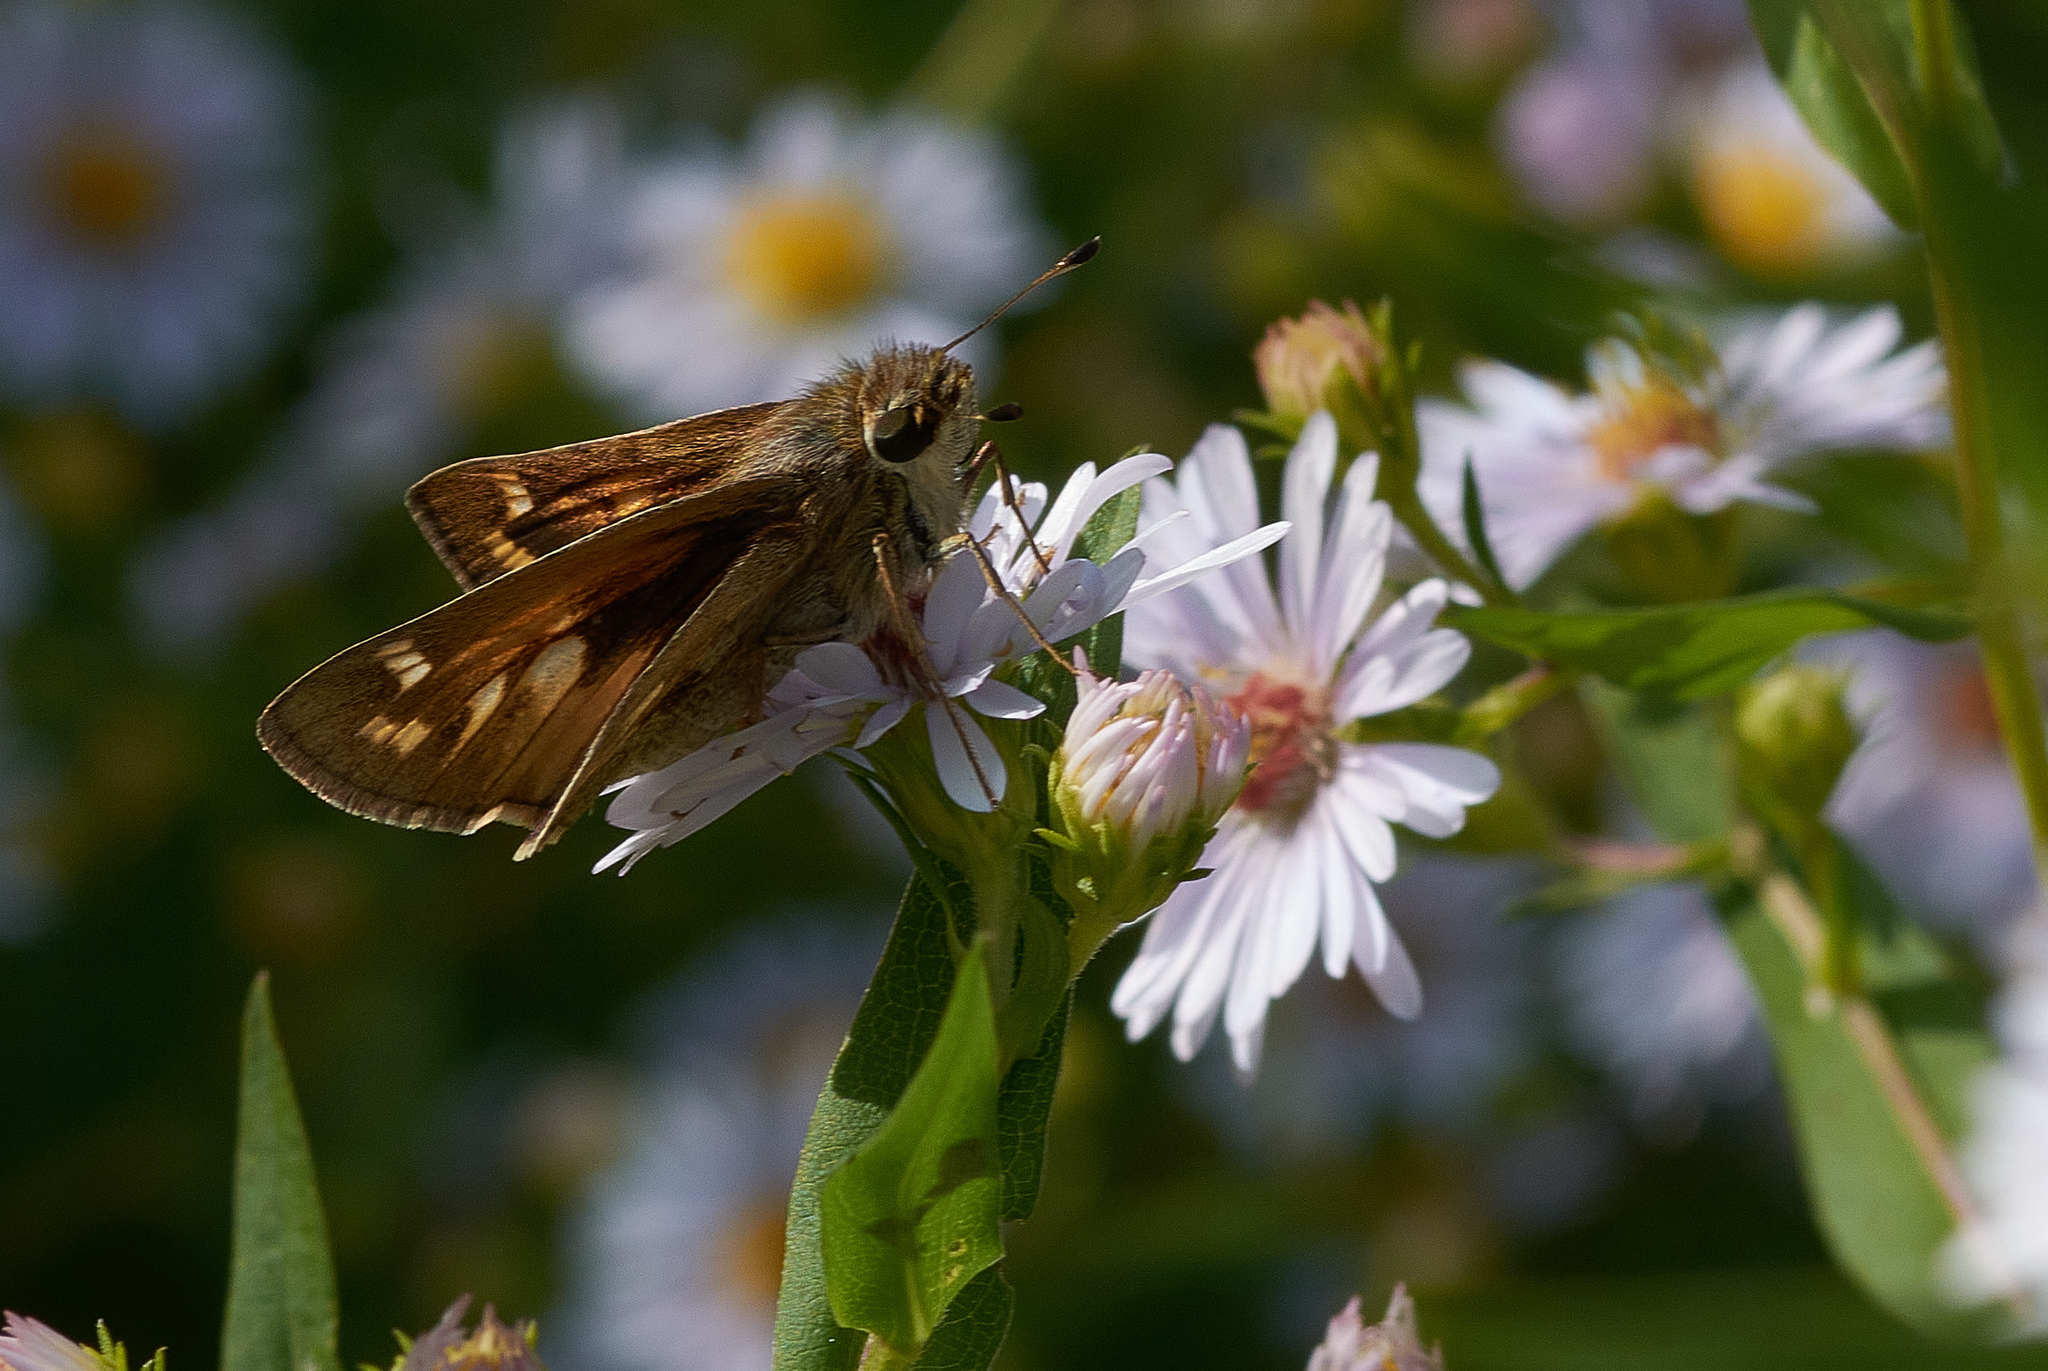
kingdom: Animalia
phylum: Arthropoda
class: Insecta
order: Lepidoptera
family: Hesperiidae
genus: Atalopedes
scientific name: Atalopedes
